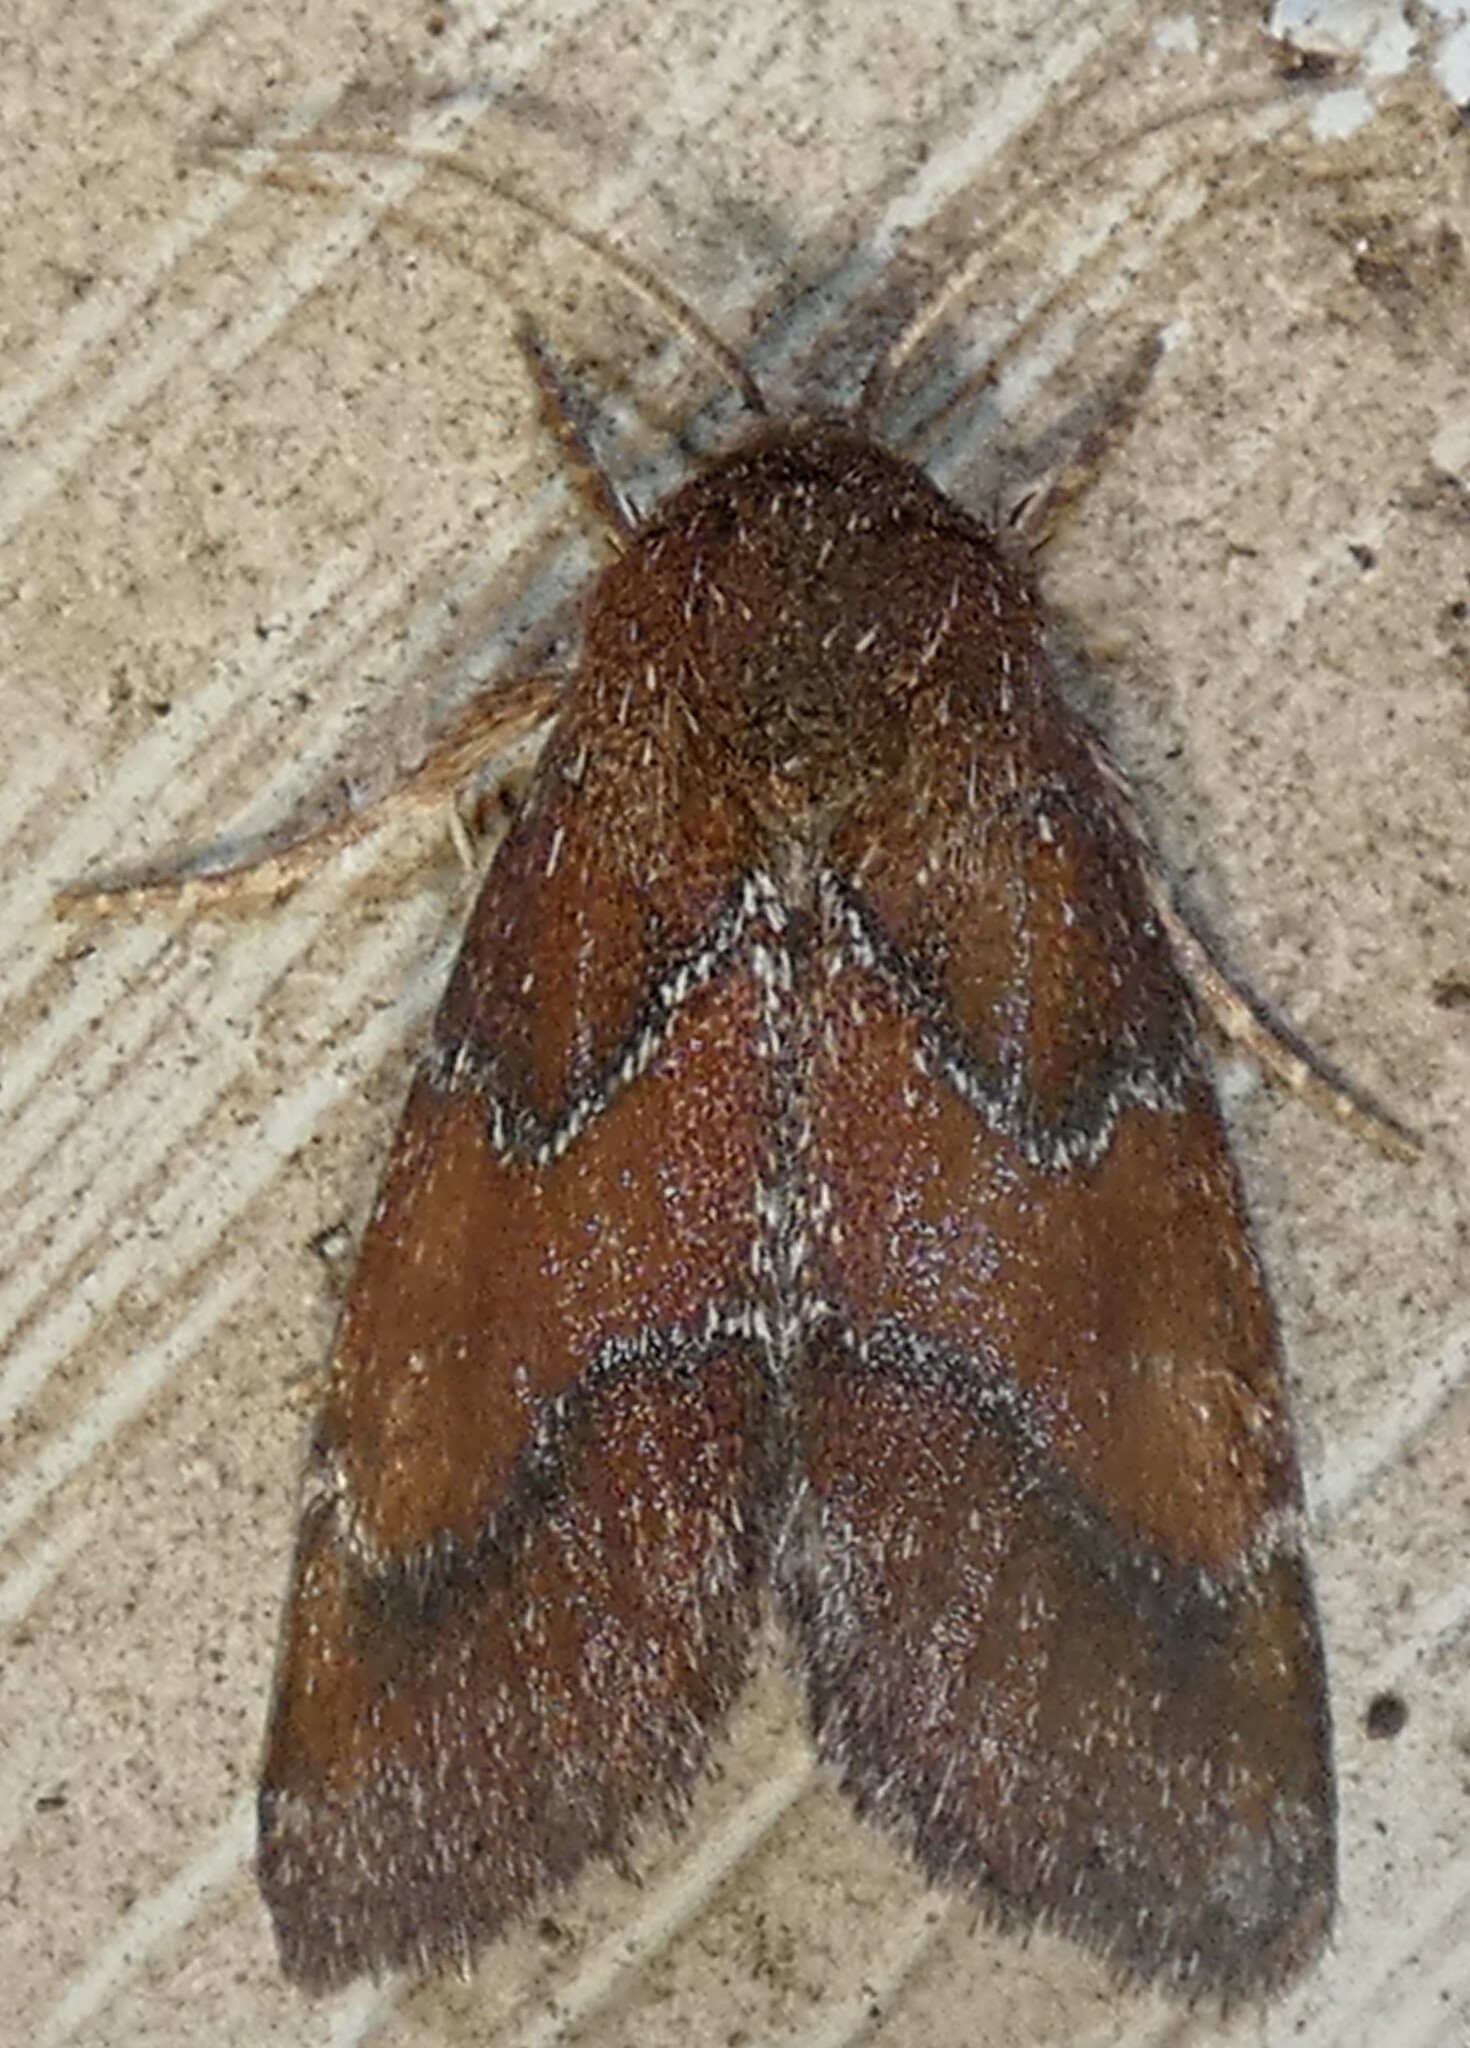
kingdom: Animalia
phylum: Arthropoda
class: Insecta
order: Lepidoptera
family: Noctuidae
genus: Schinia
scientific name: Schinia saturata
